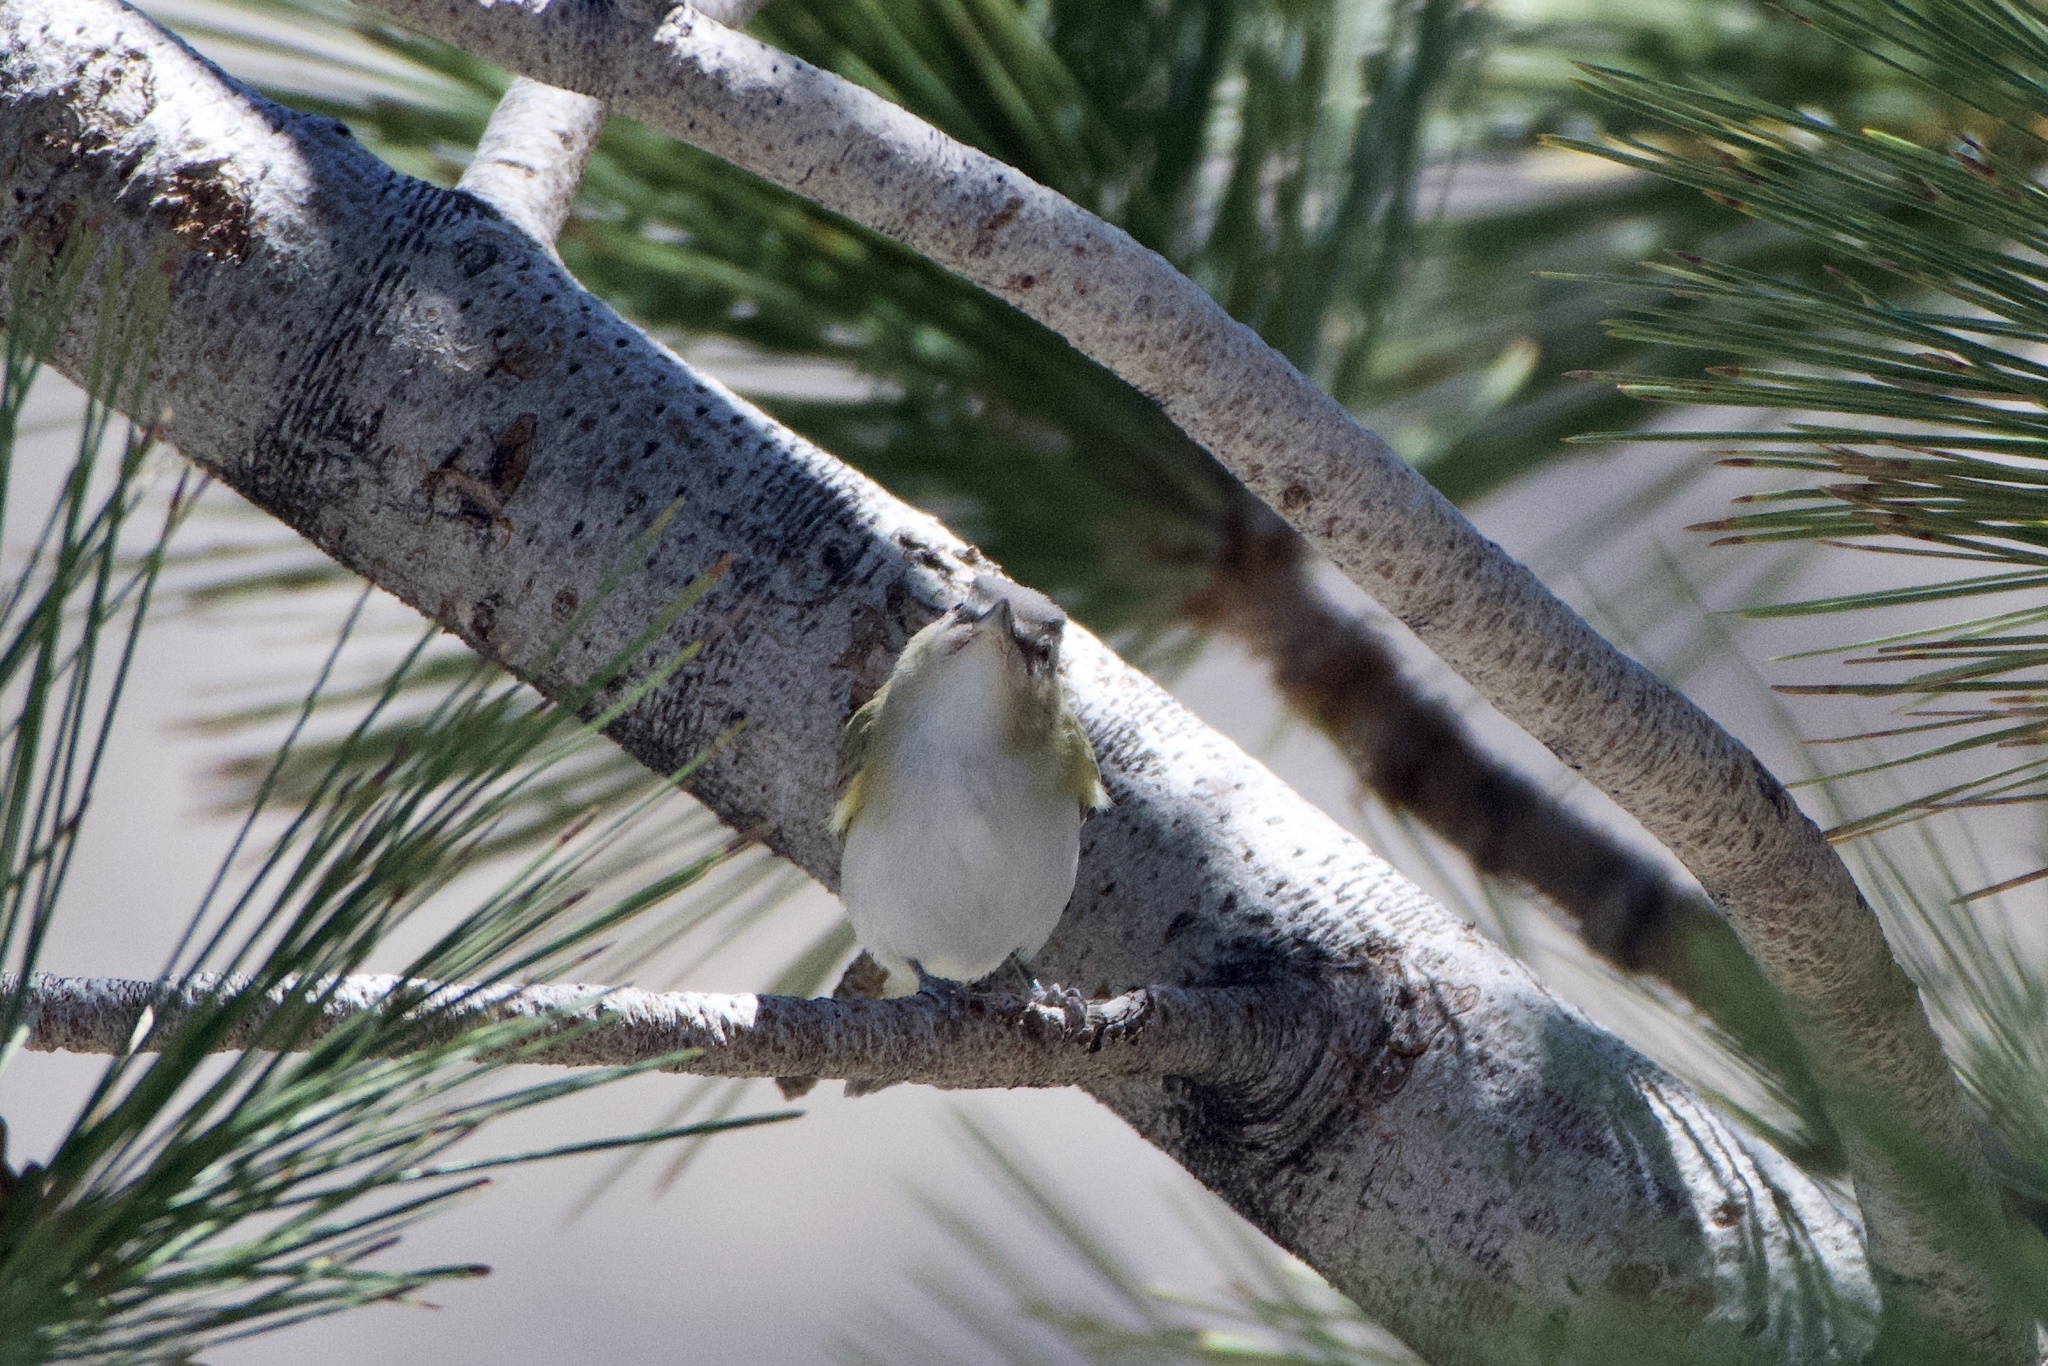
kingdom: Animalia
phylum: Chordata
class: Aves
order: Passeriformes
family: Vireonidae
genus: Vireo
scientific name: Vireo olivaceus
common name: Red-eyed vireo
